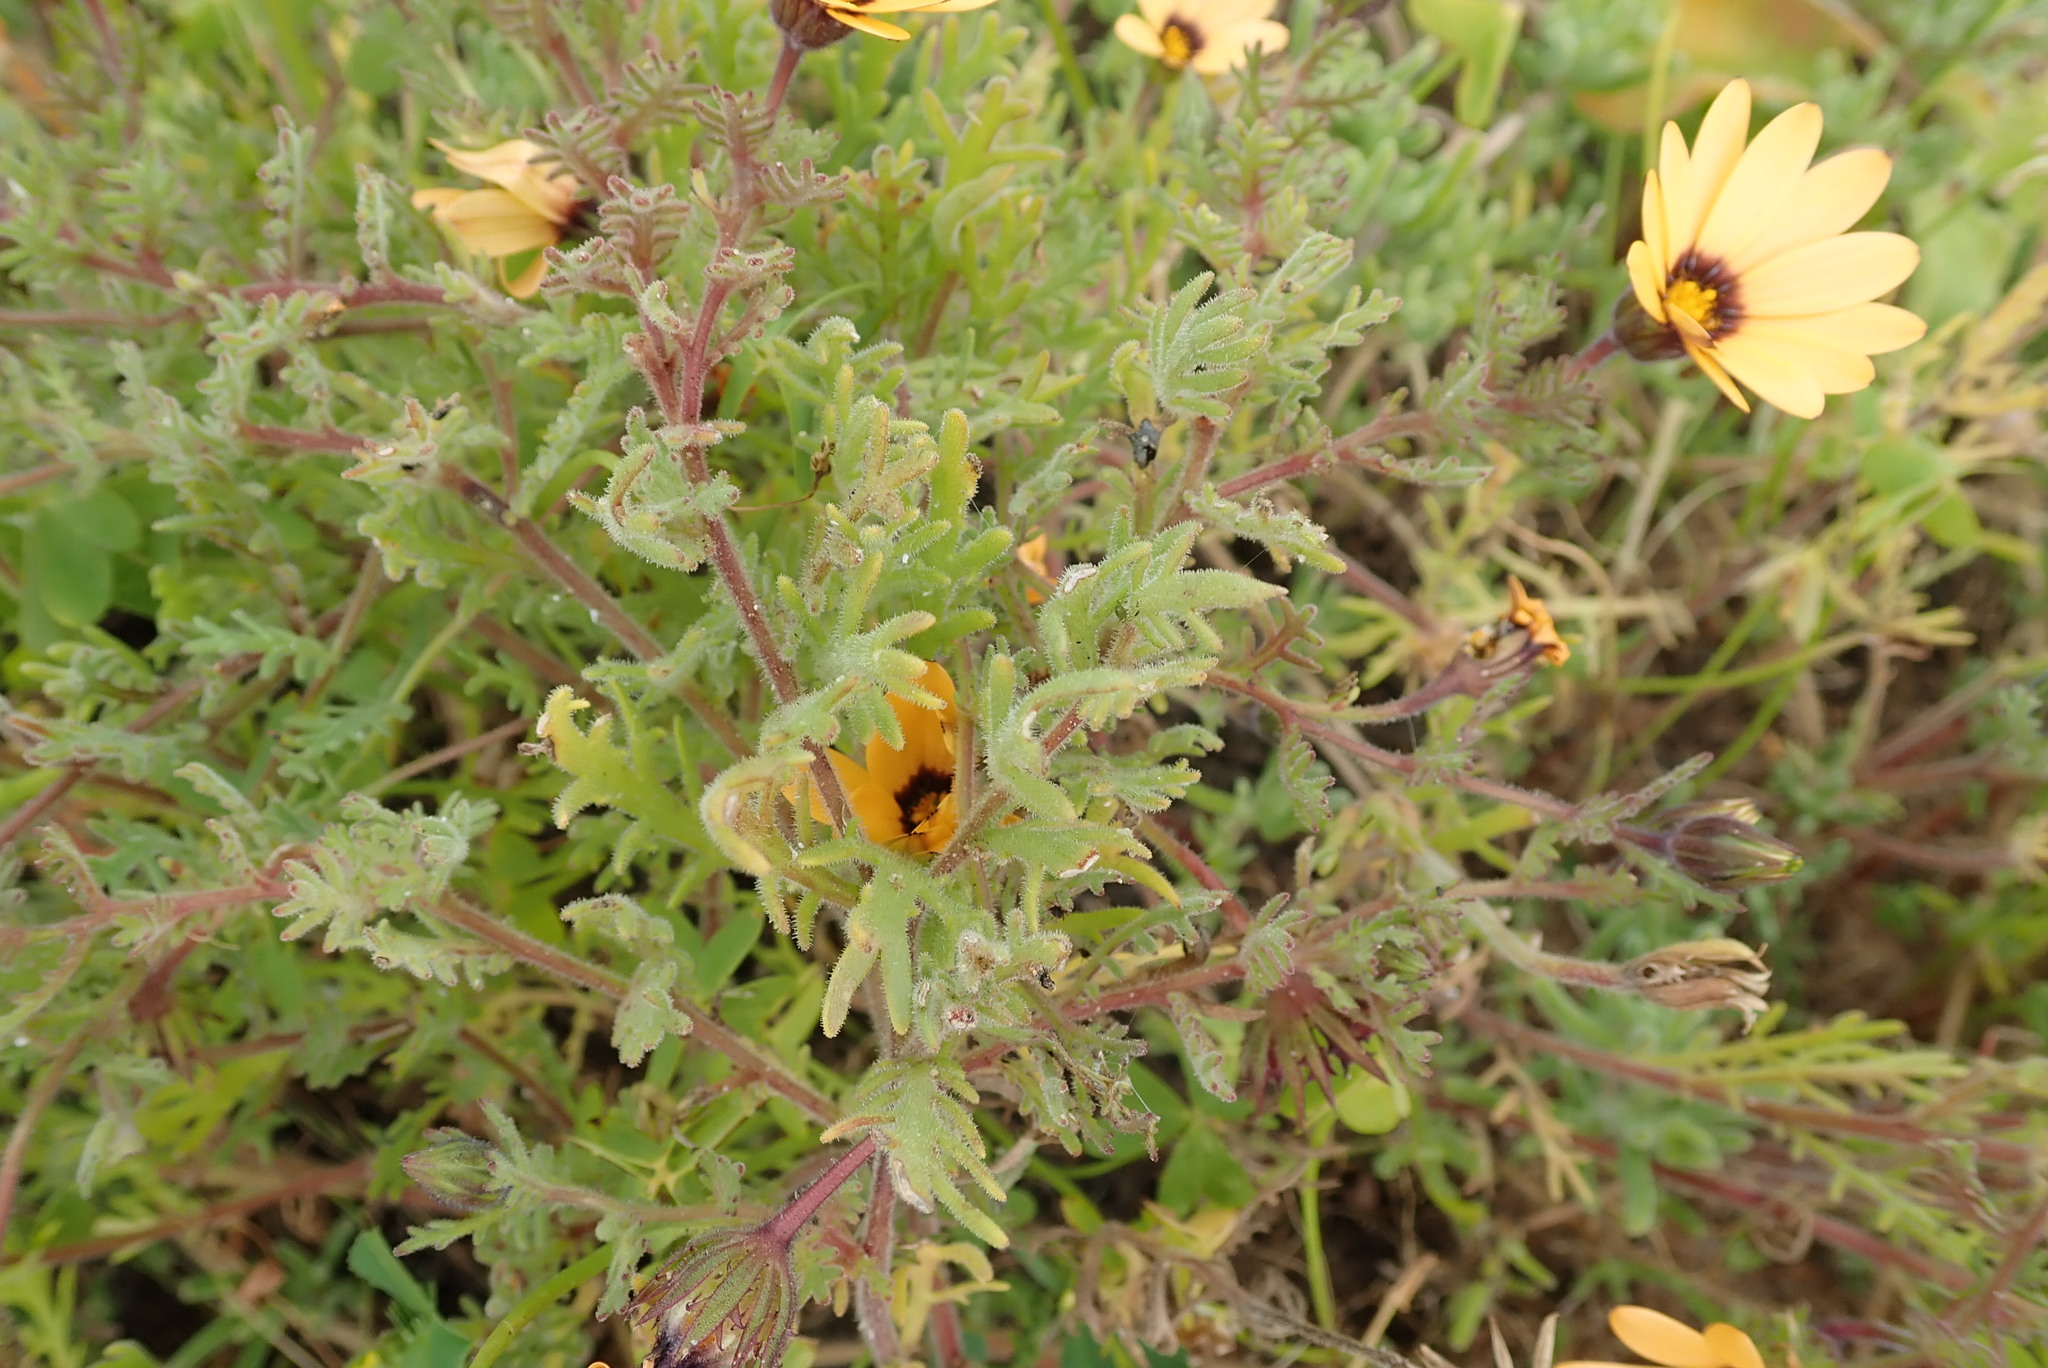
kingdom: Plantae
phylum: Tracheophyta
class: Magnoliopsida
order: Asterales
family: Asteraceae
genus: Dimorphotheca
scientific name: Dimorphotheca pinnata
